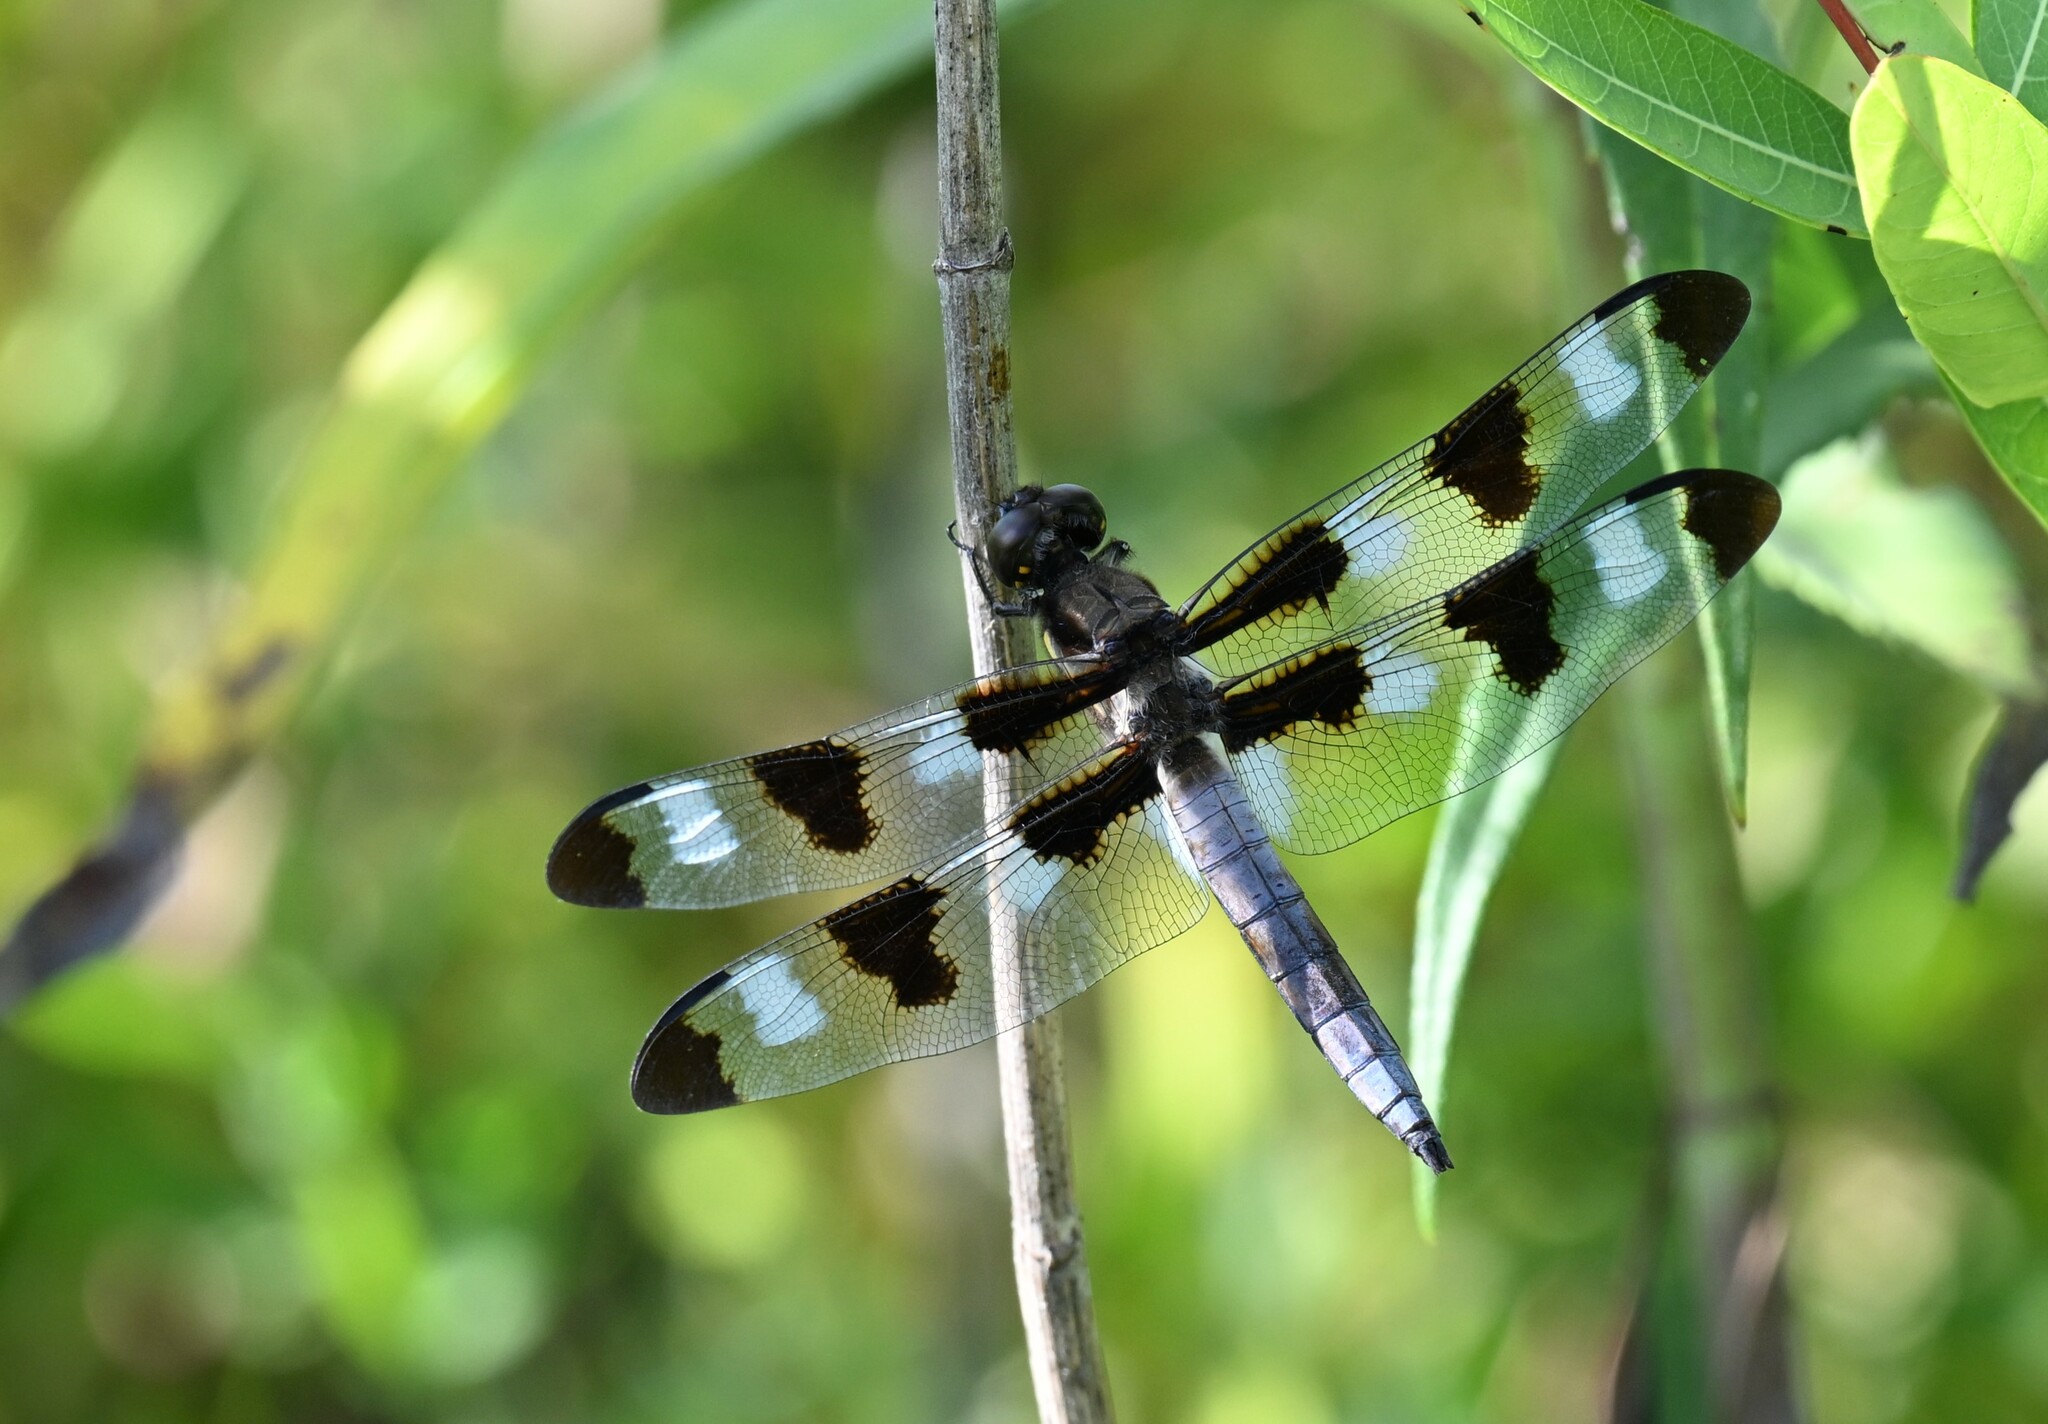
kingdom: Animalia
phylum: Arthropoda
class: Insecta
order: Odonata
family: Libellulidae
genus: Libellula
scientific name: Libellula pulchella
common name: Twelve-spotted skimmer
